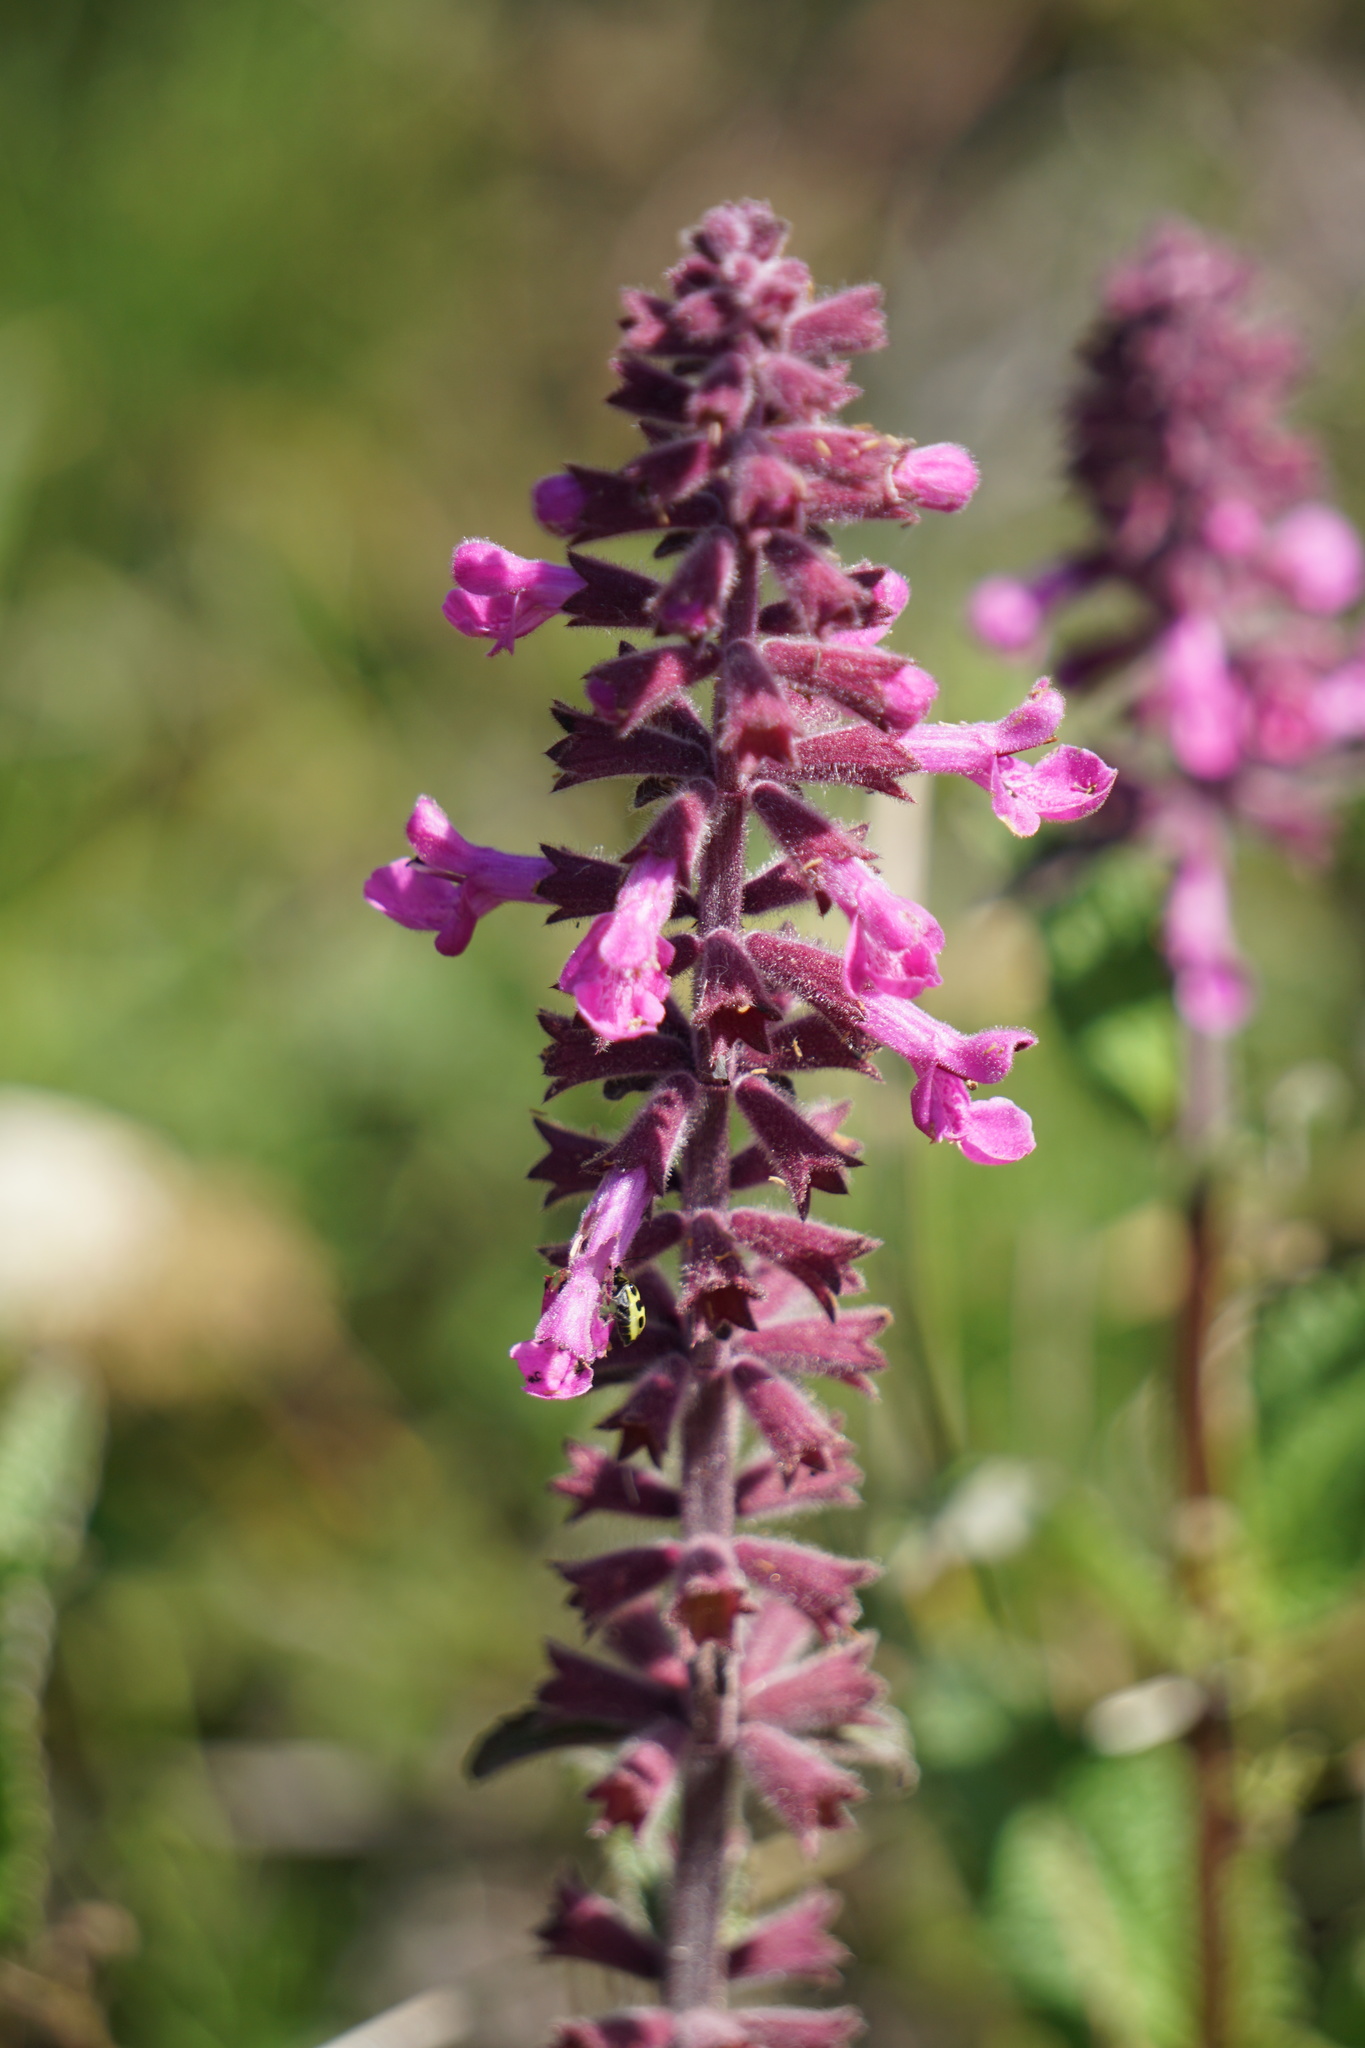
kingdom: Plantae
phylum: Tracheophyta
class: Magnoliopsida
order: Lamiales
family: Lamiaceae
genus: Stachys
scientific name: Stachys chamissonis
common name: Coastal hedge-nettle
